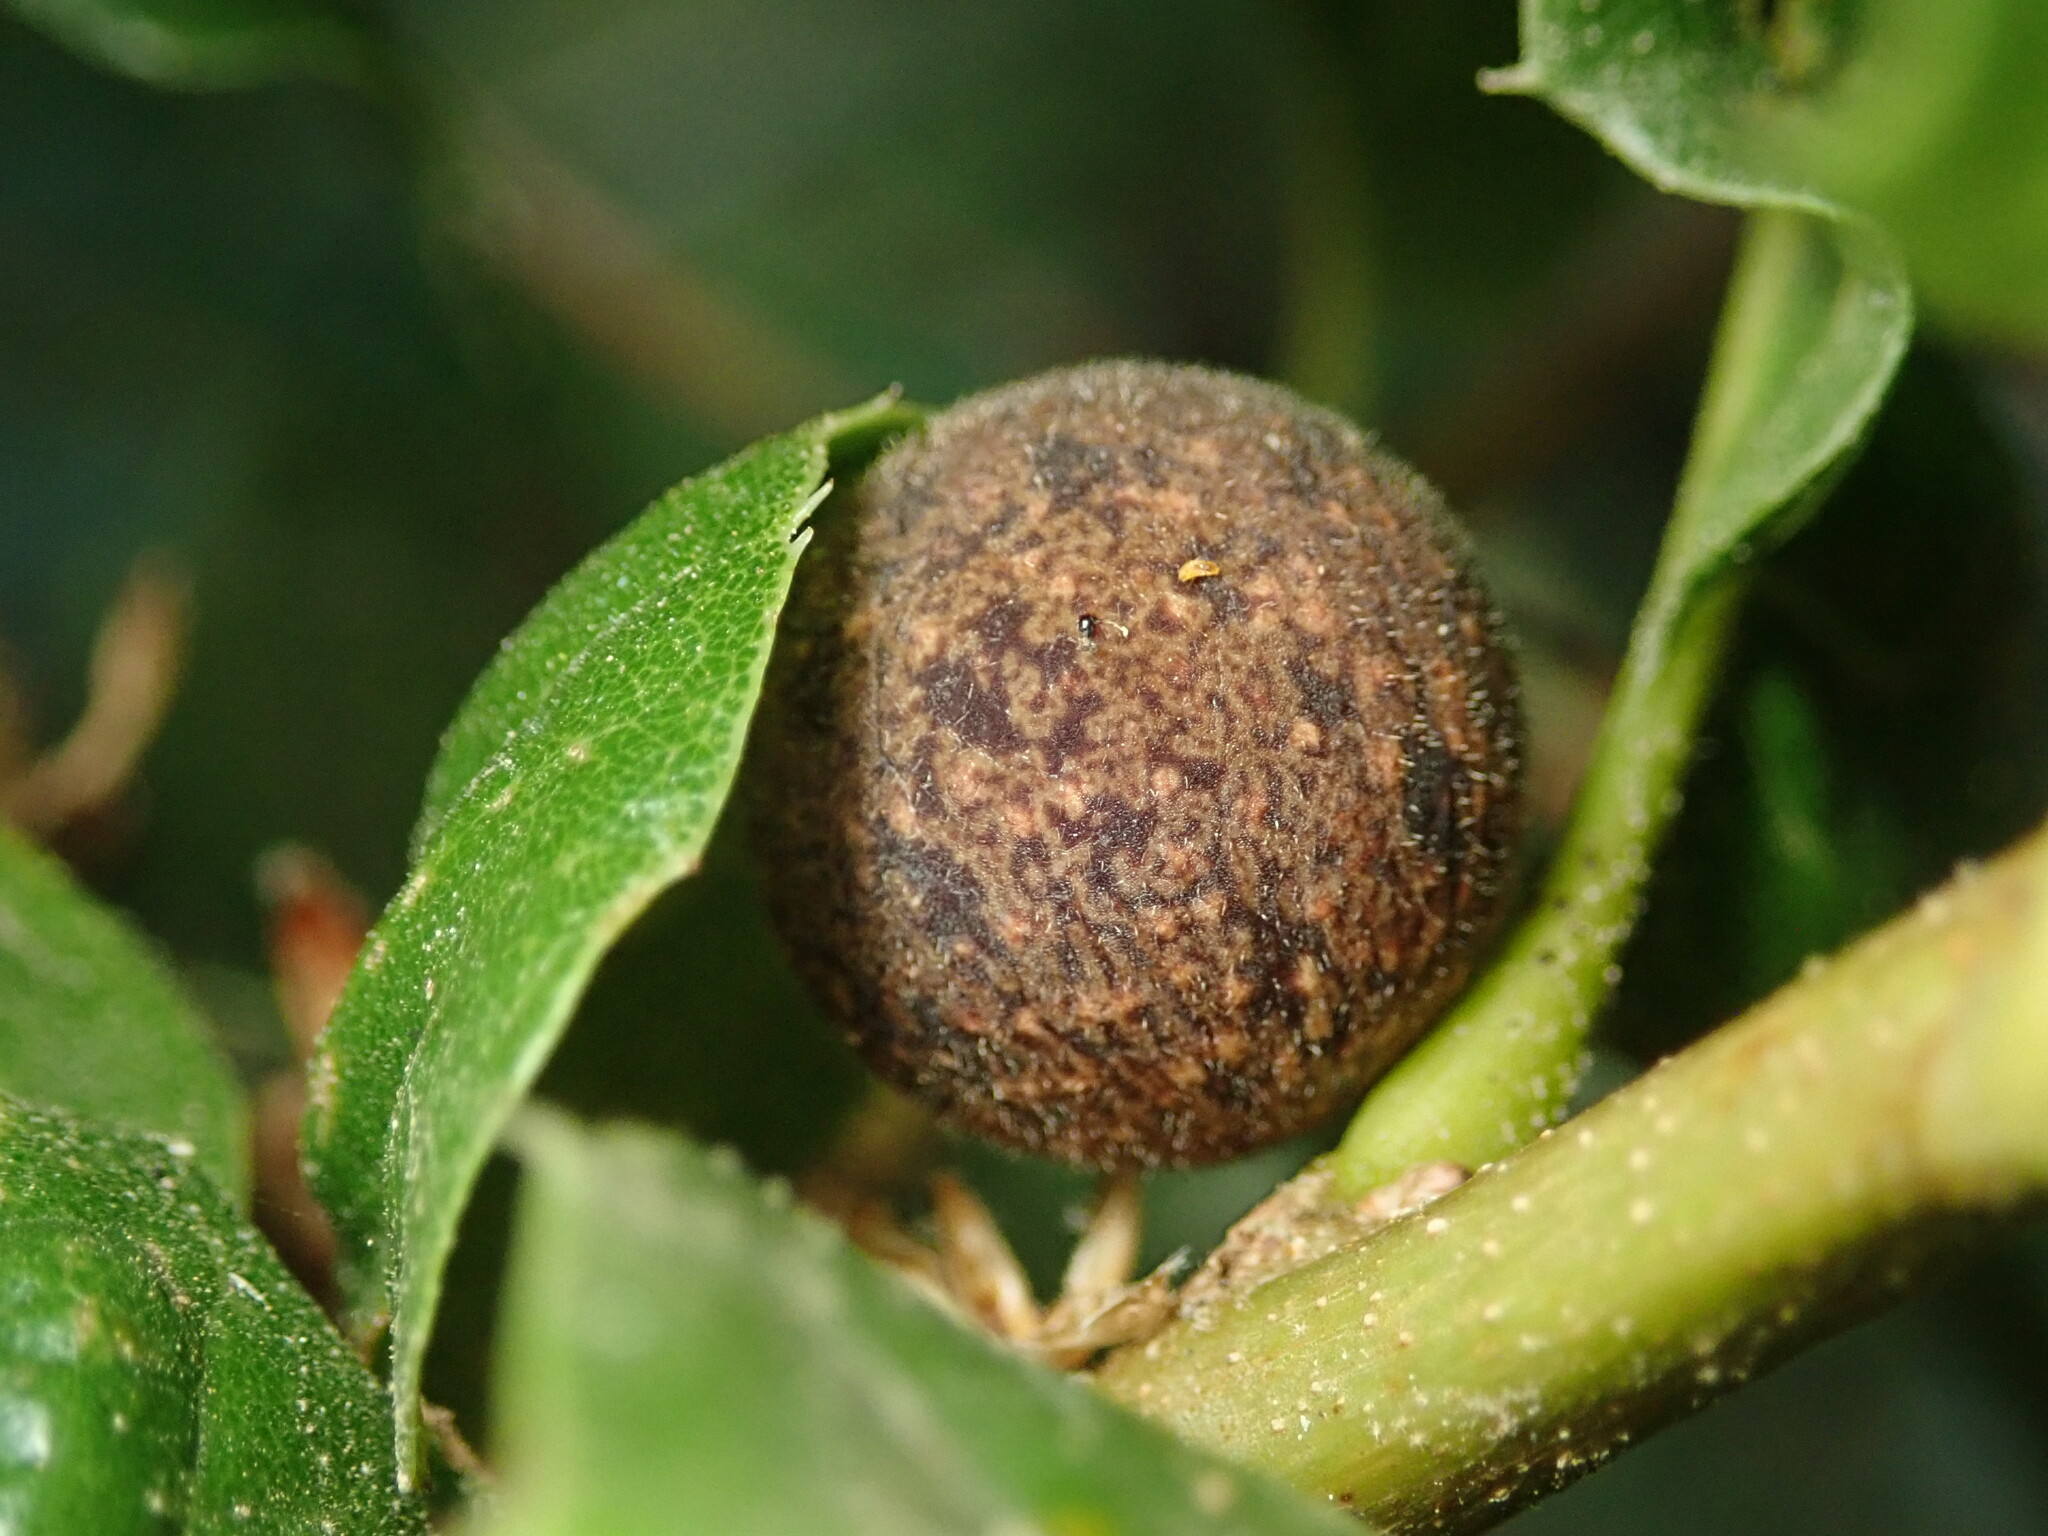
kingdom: Animalia
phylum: Arthropoda
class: Insecta
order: Hymenoptera
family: Cynipidae
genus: Callirhytis
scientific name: Callirhytis
